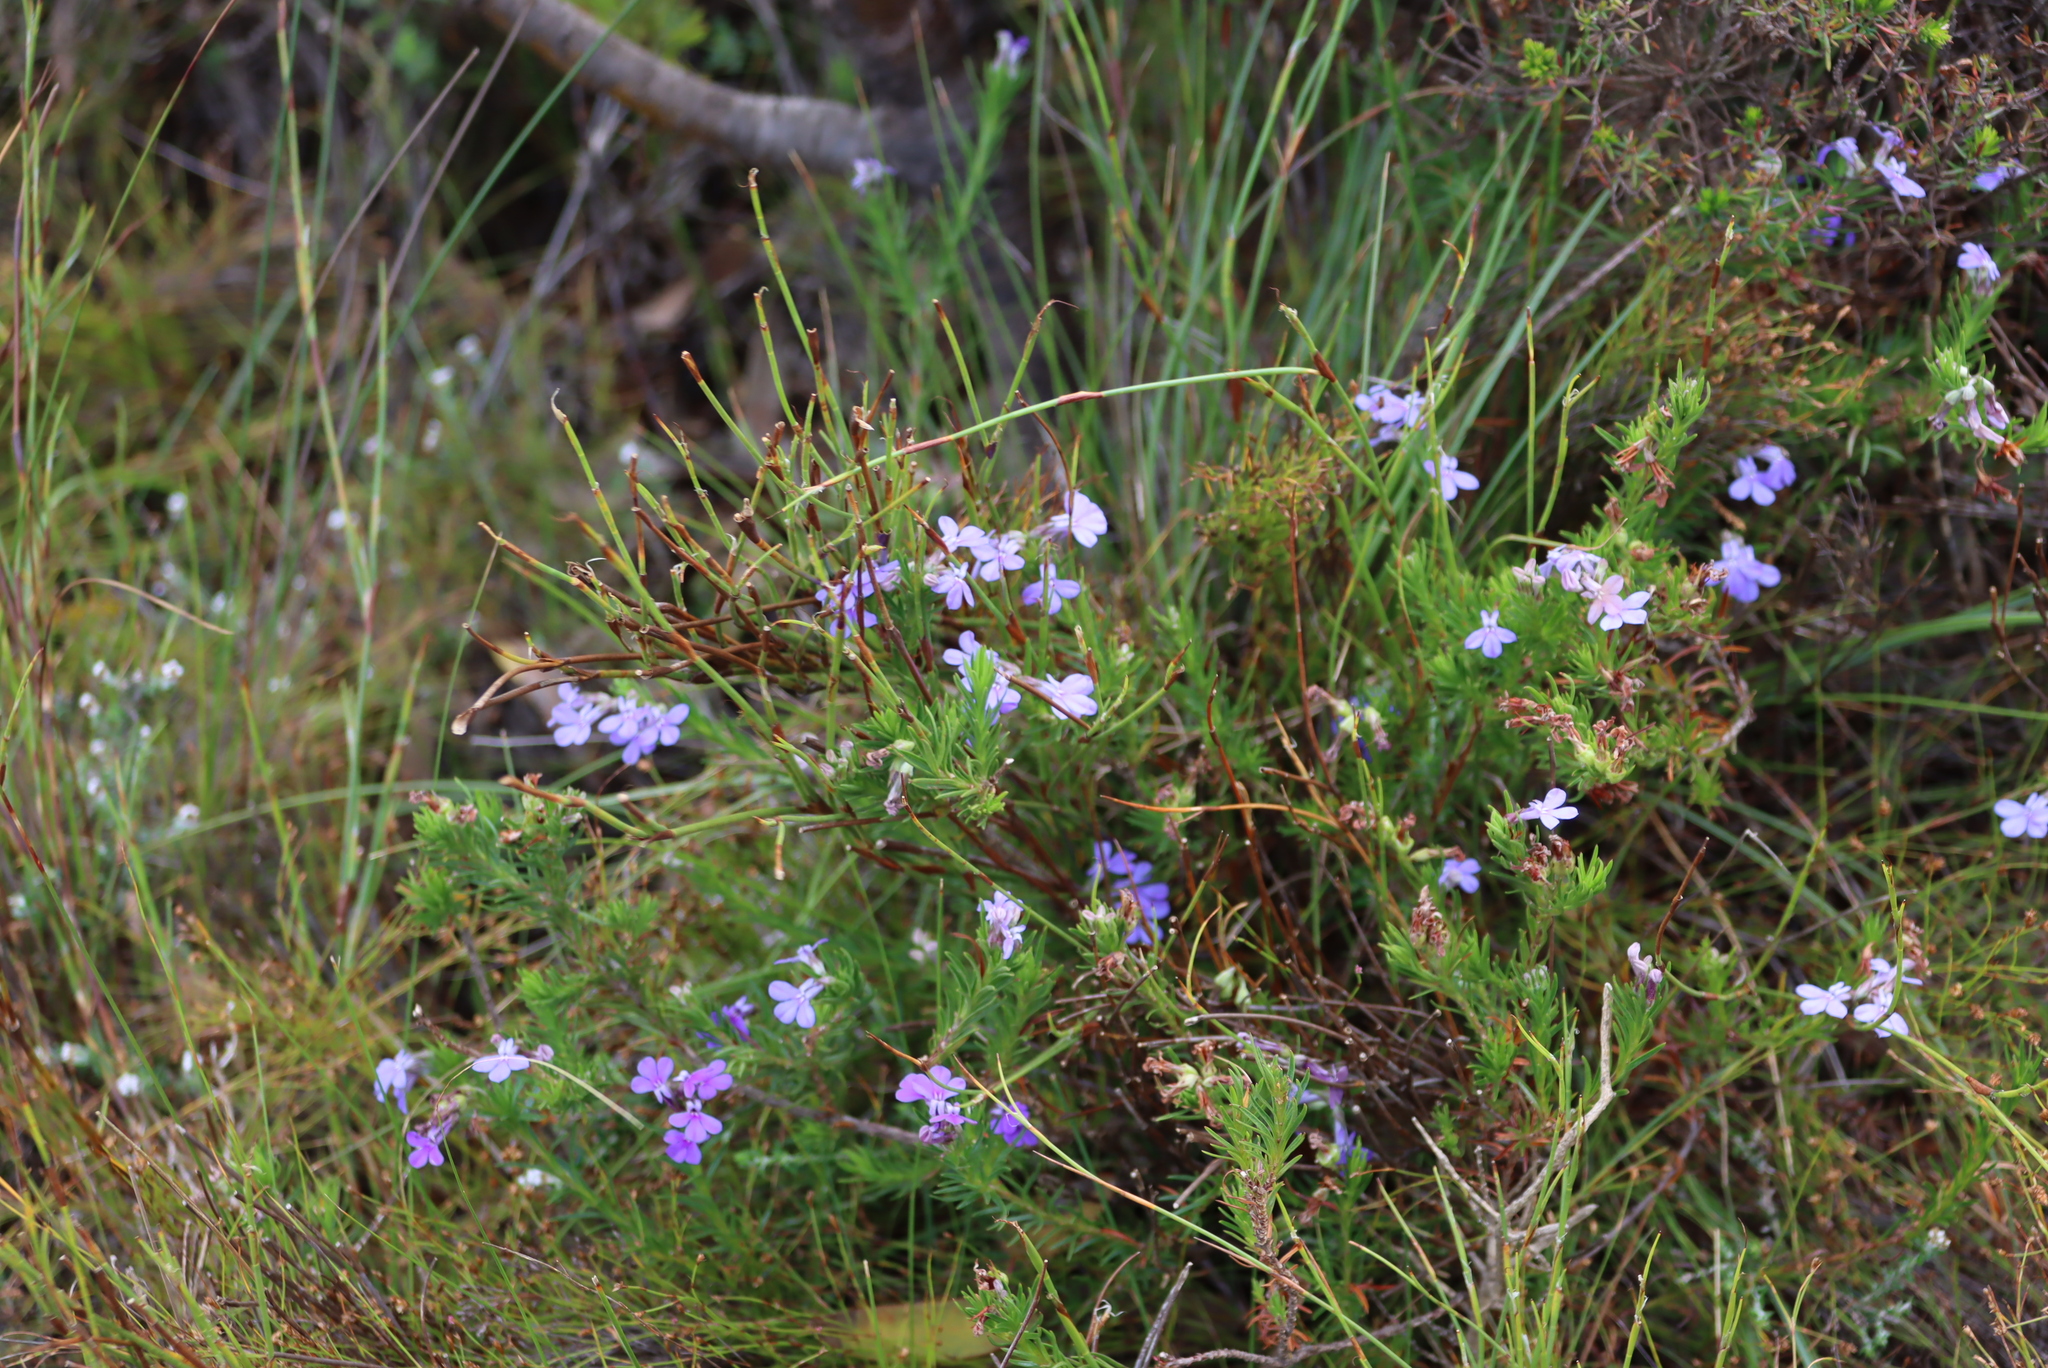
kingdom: Plantae
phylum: Tracheophyta
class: Magnoliopsida
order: Asterales
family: Campanulaceae
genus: Lobelia
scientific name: Lobelia pinifolia
